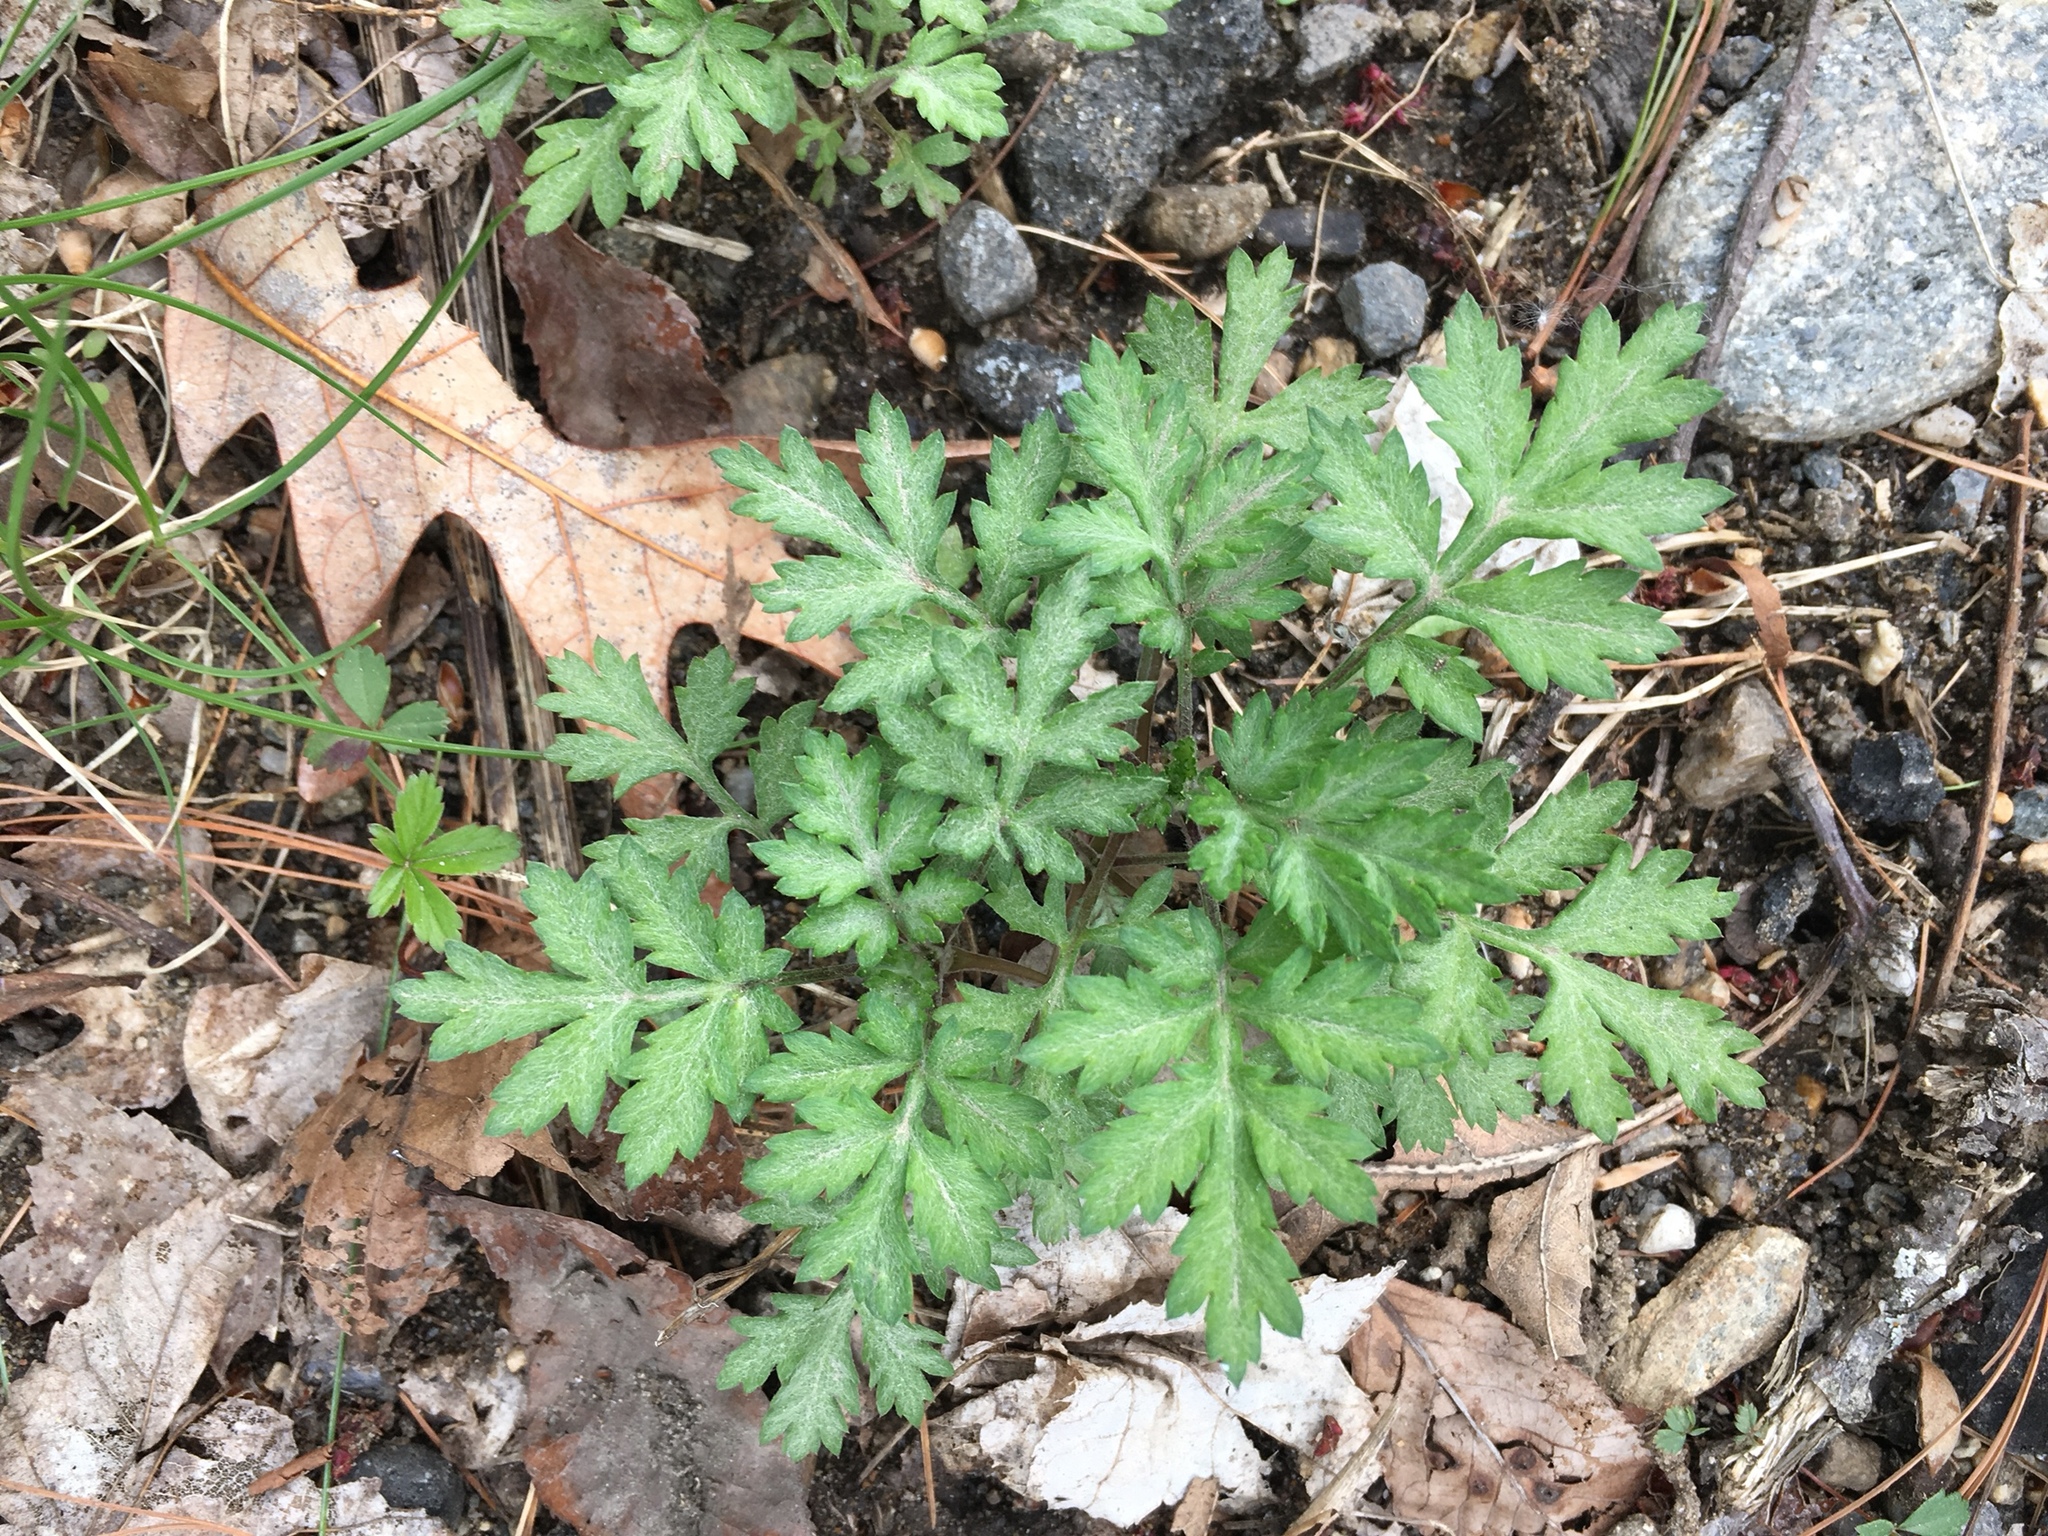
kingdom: Plantae
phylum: Tracheophyta
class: Magnoliopsida
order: Asterales
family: Asteraceae
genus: Artemisia
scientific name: Artemisia vulgaris
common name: Mugwort
